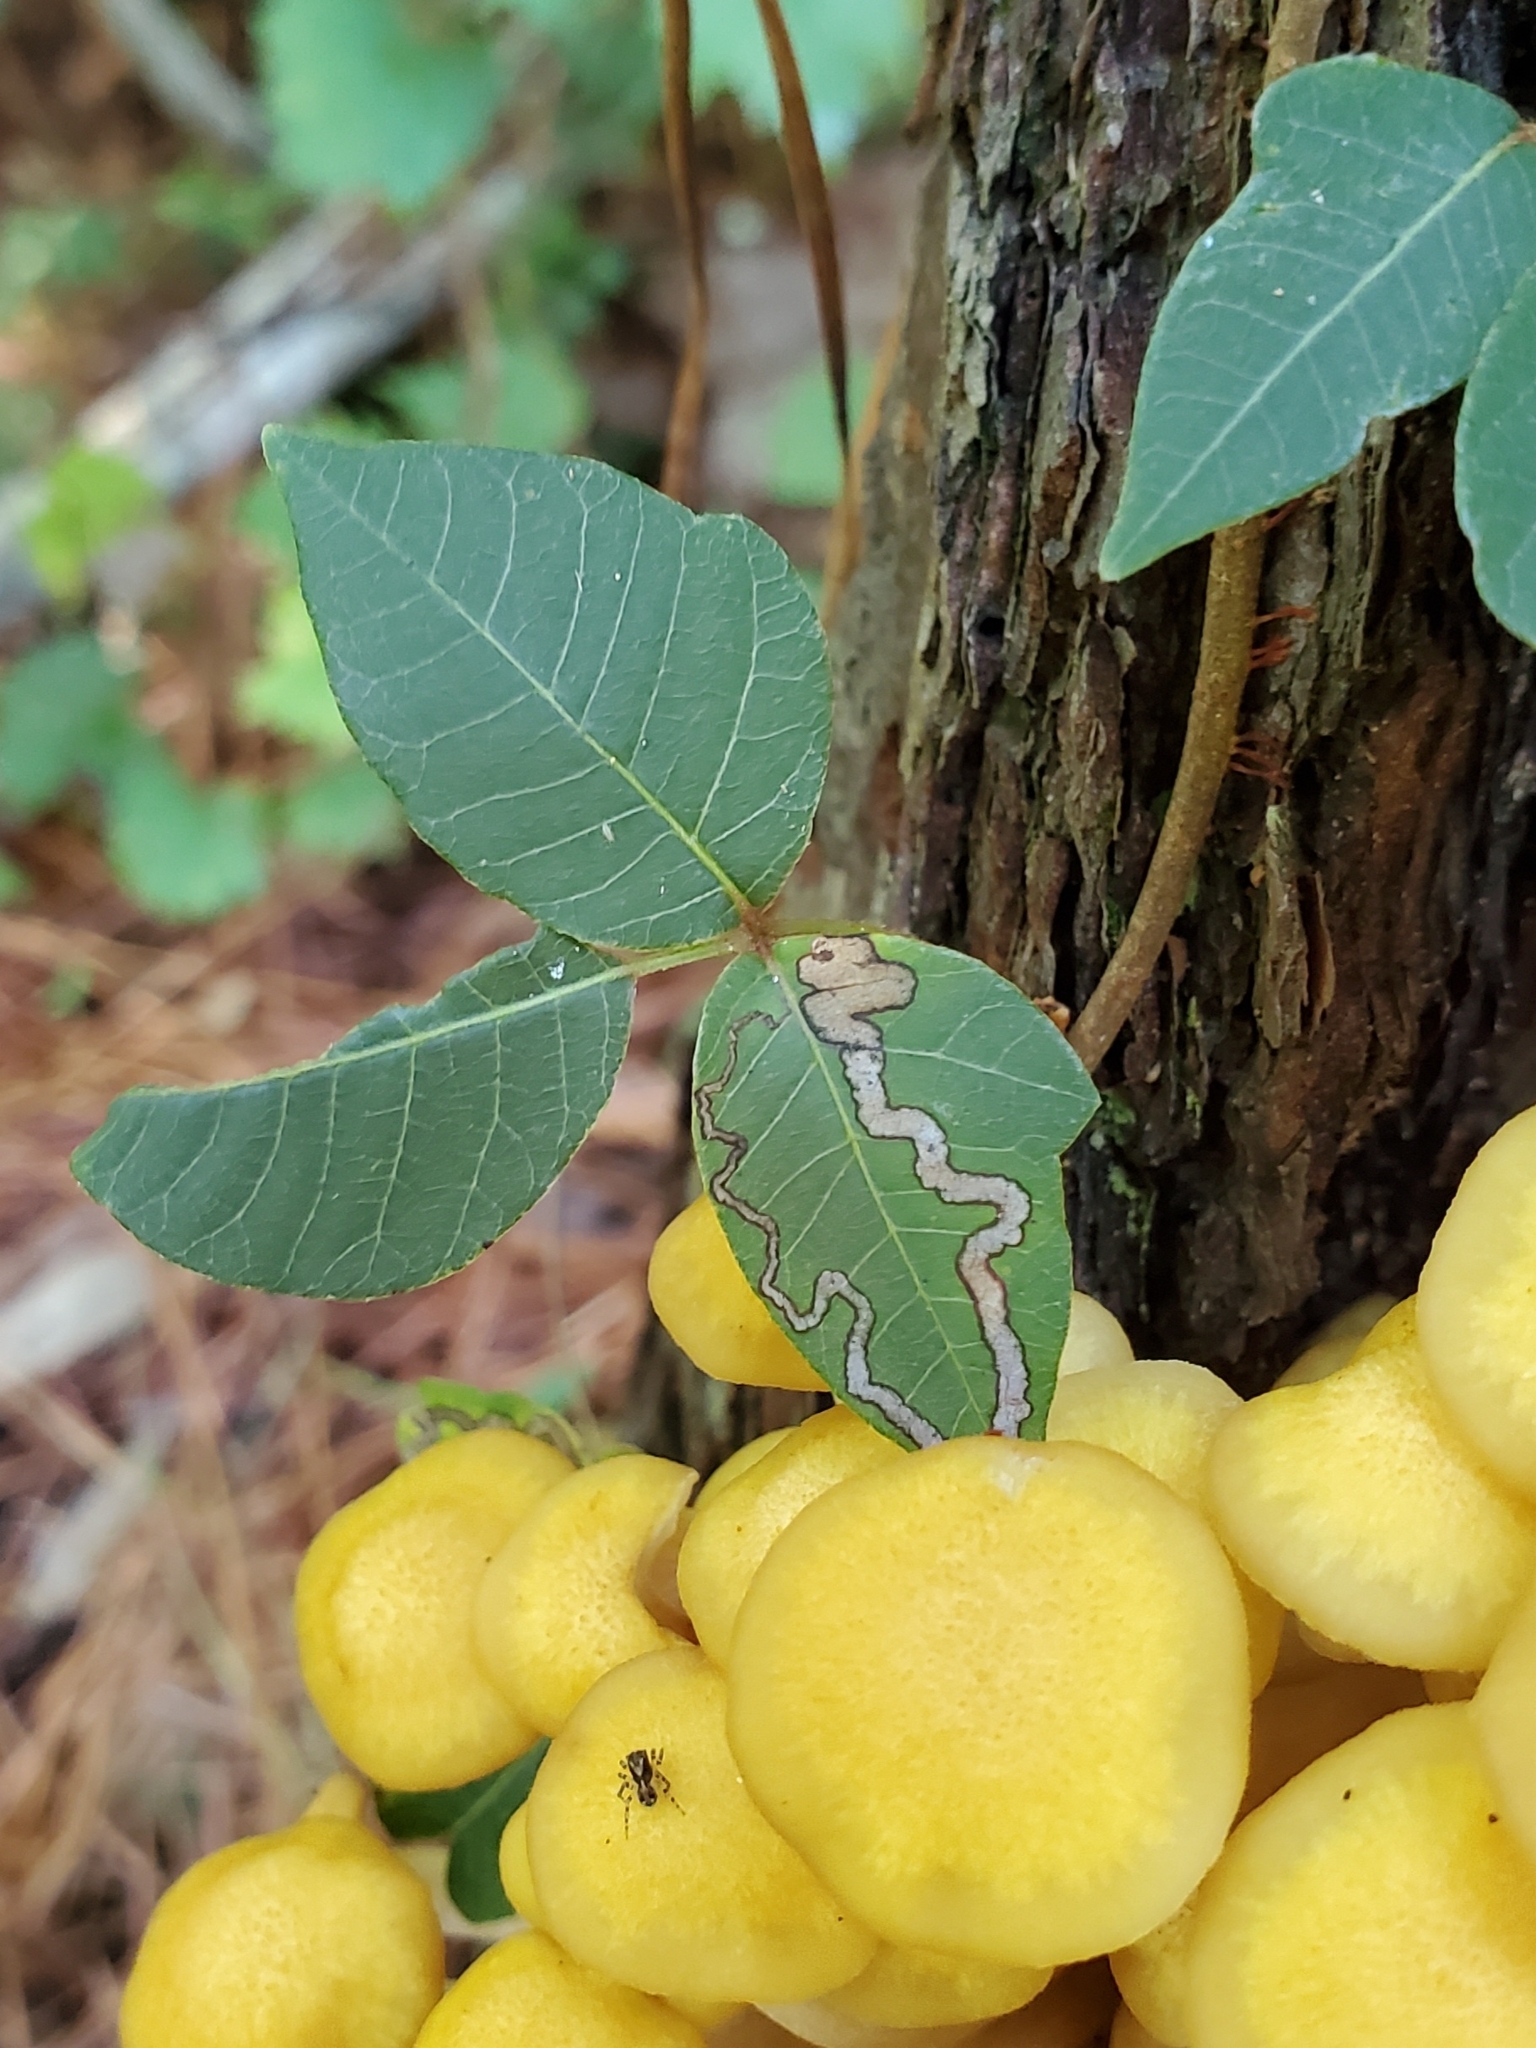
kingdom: Animalia
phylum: Arthropoda
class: Insecta
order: Lepidoptera
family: Nepticulidae
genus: Stigmella
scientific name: Stigmella rhoifoliella
